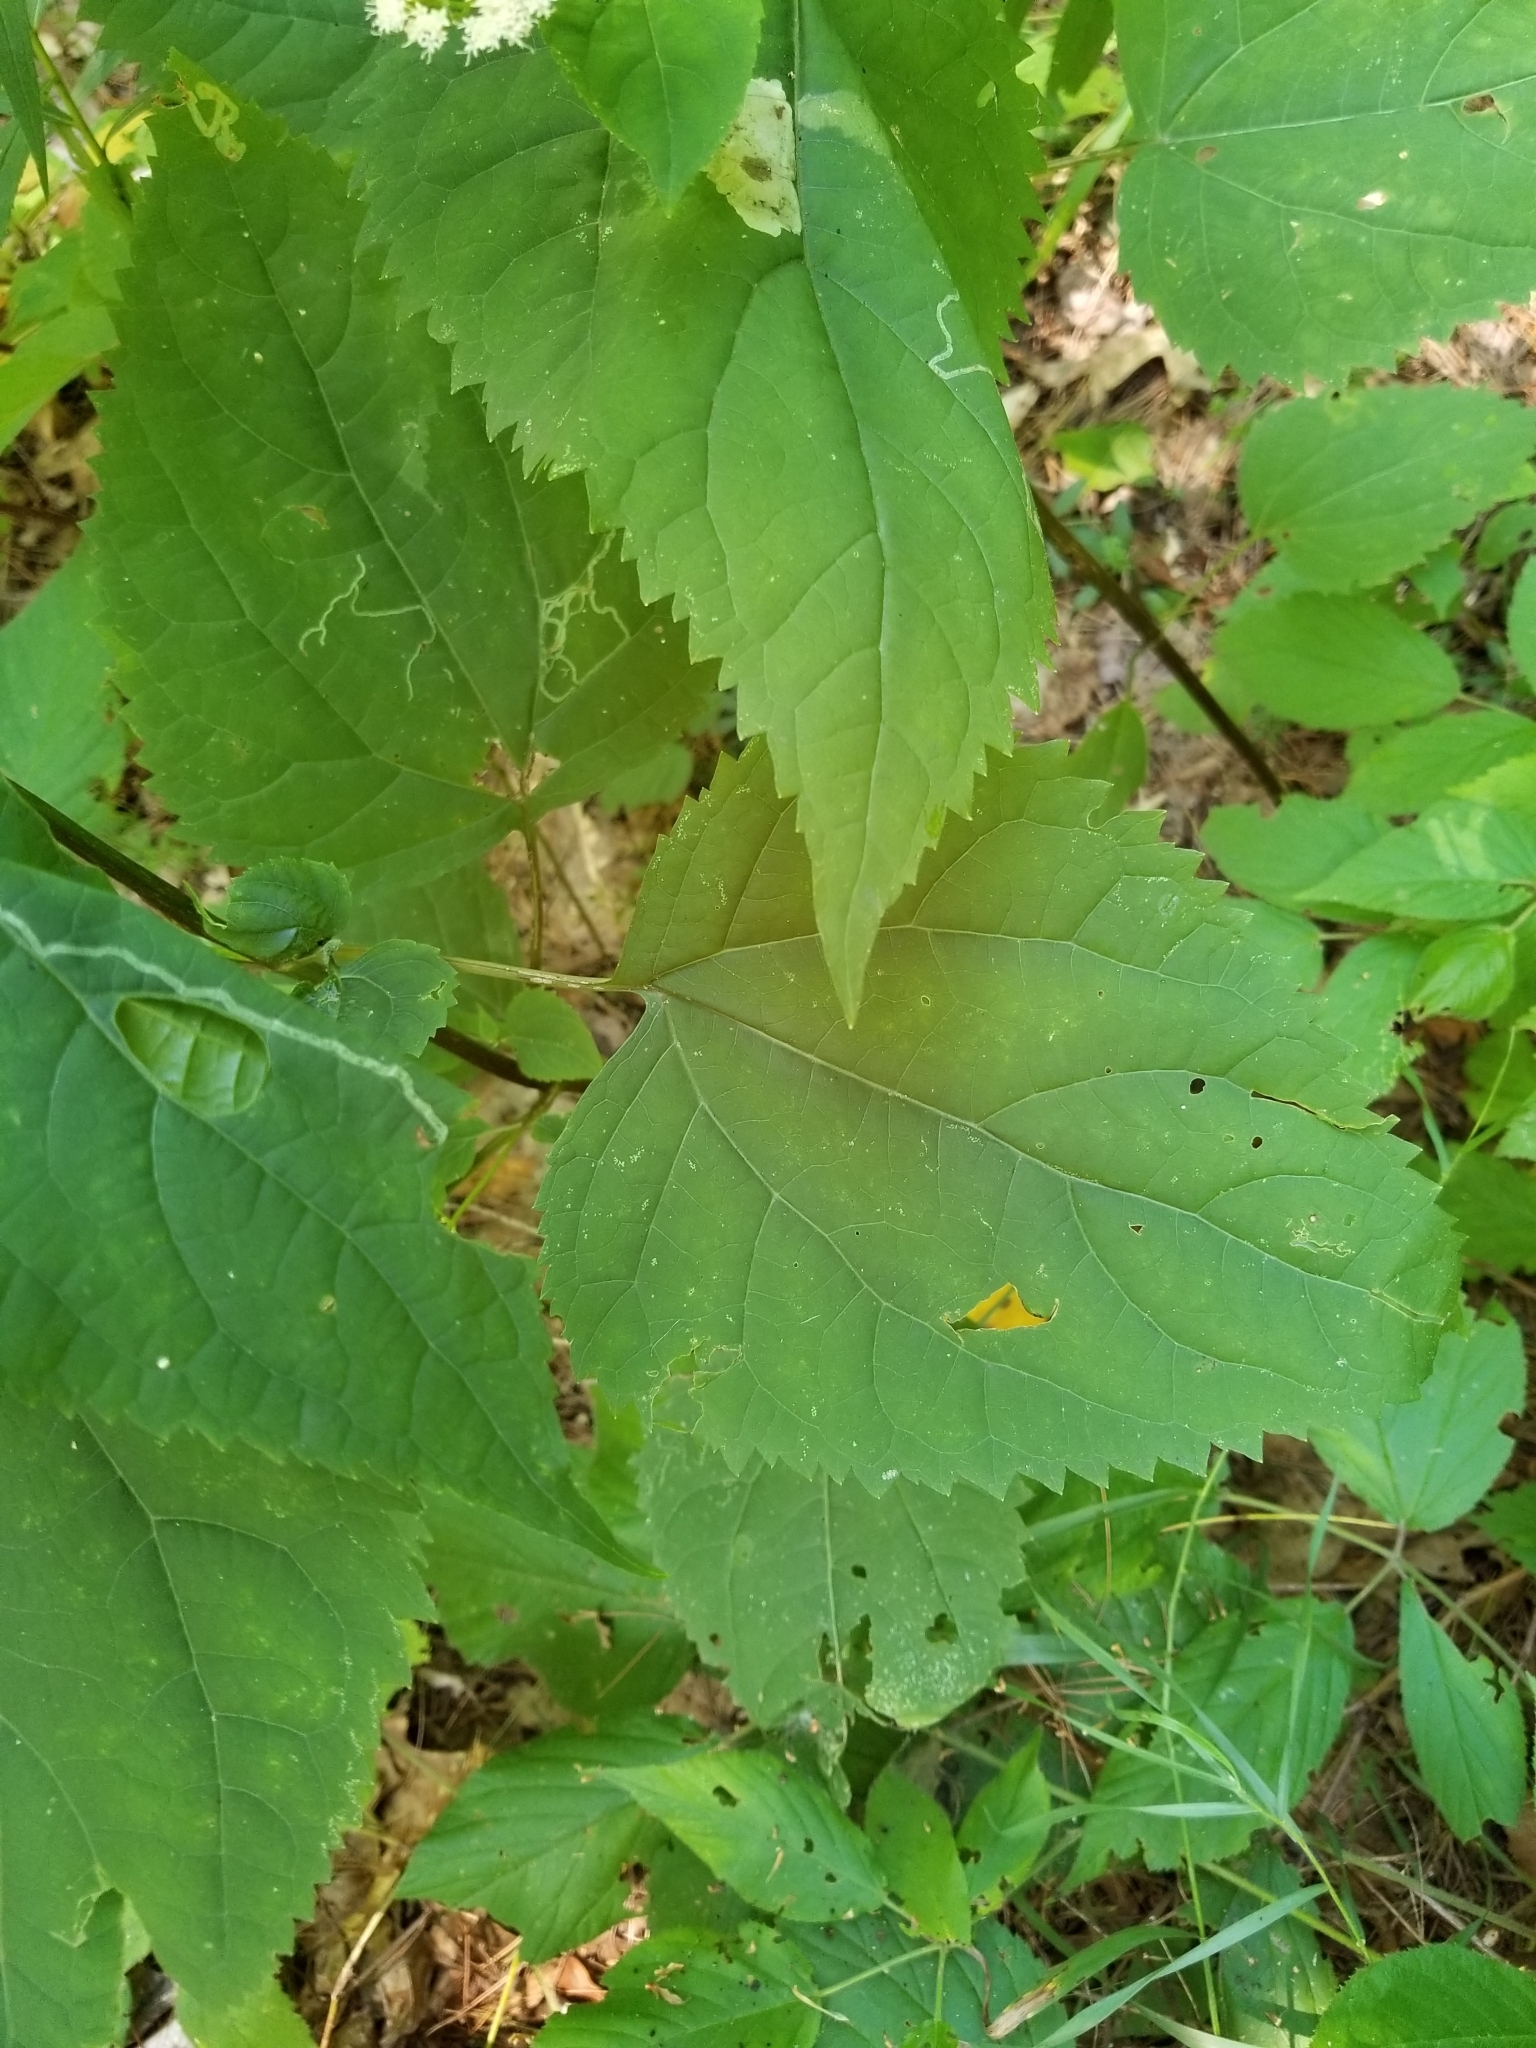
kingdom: Plantae
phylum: Tracheophyta
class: Magnoliopsida
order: Asterales
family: Asteraceae
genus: Ageratina
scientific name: Ageratina altissima
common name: White snakeroot
